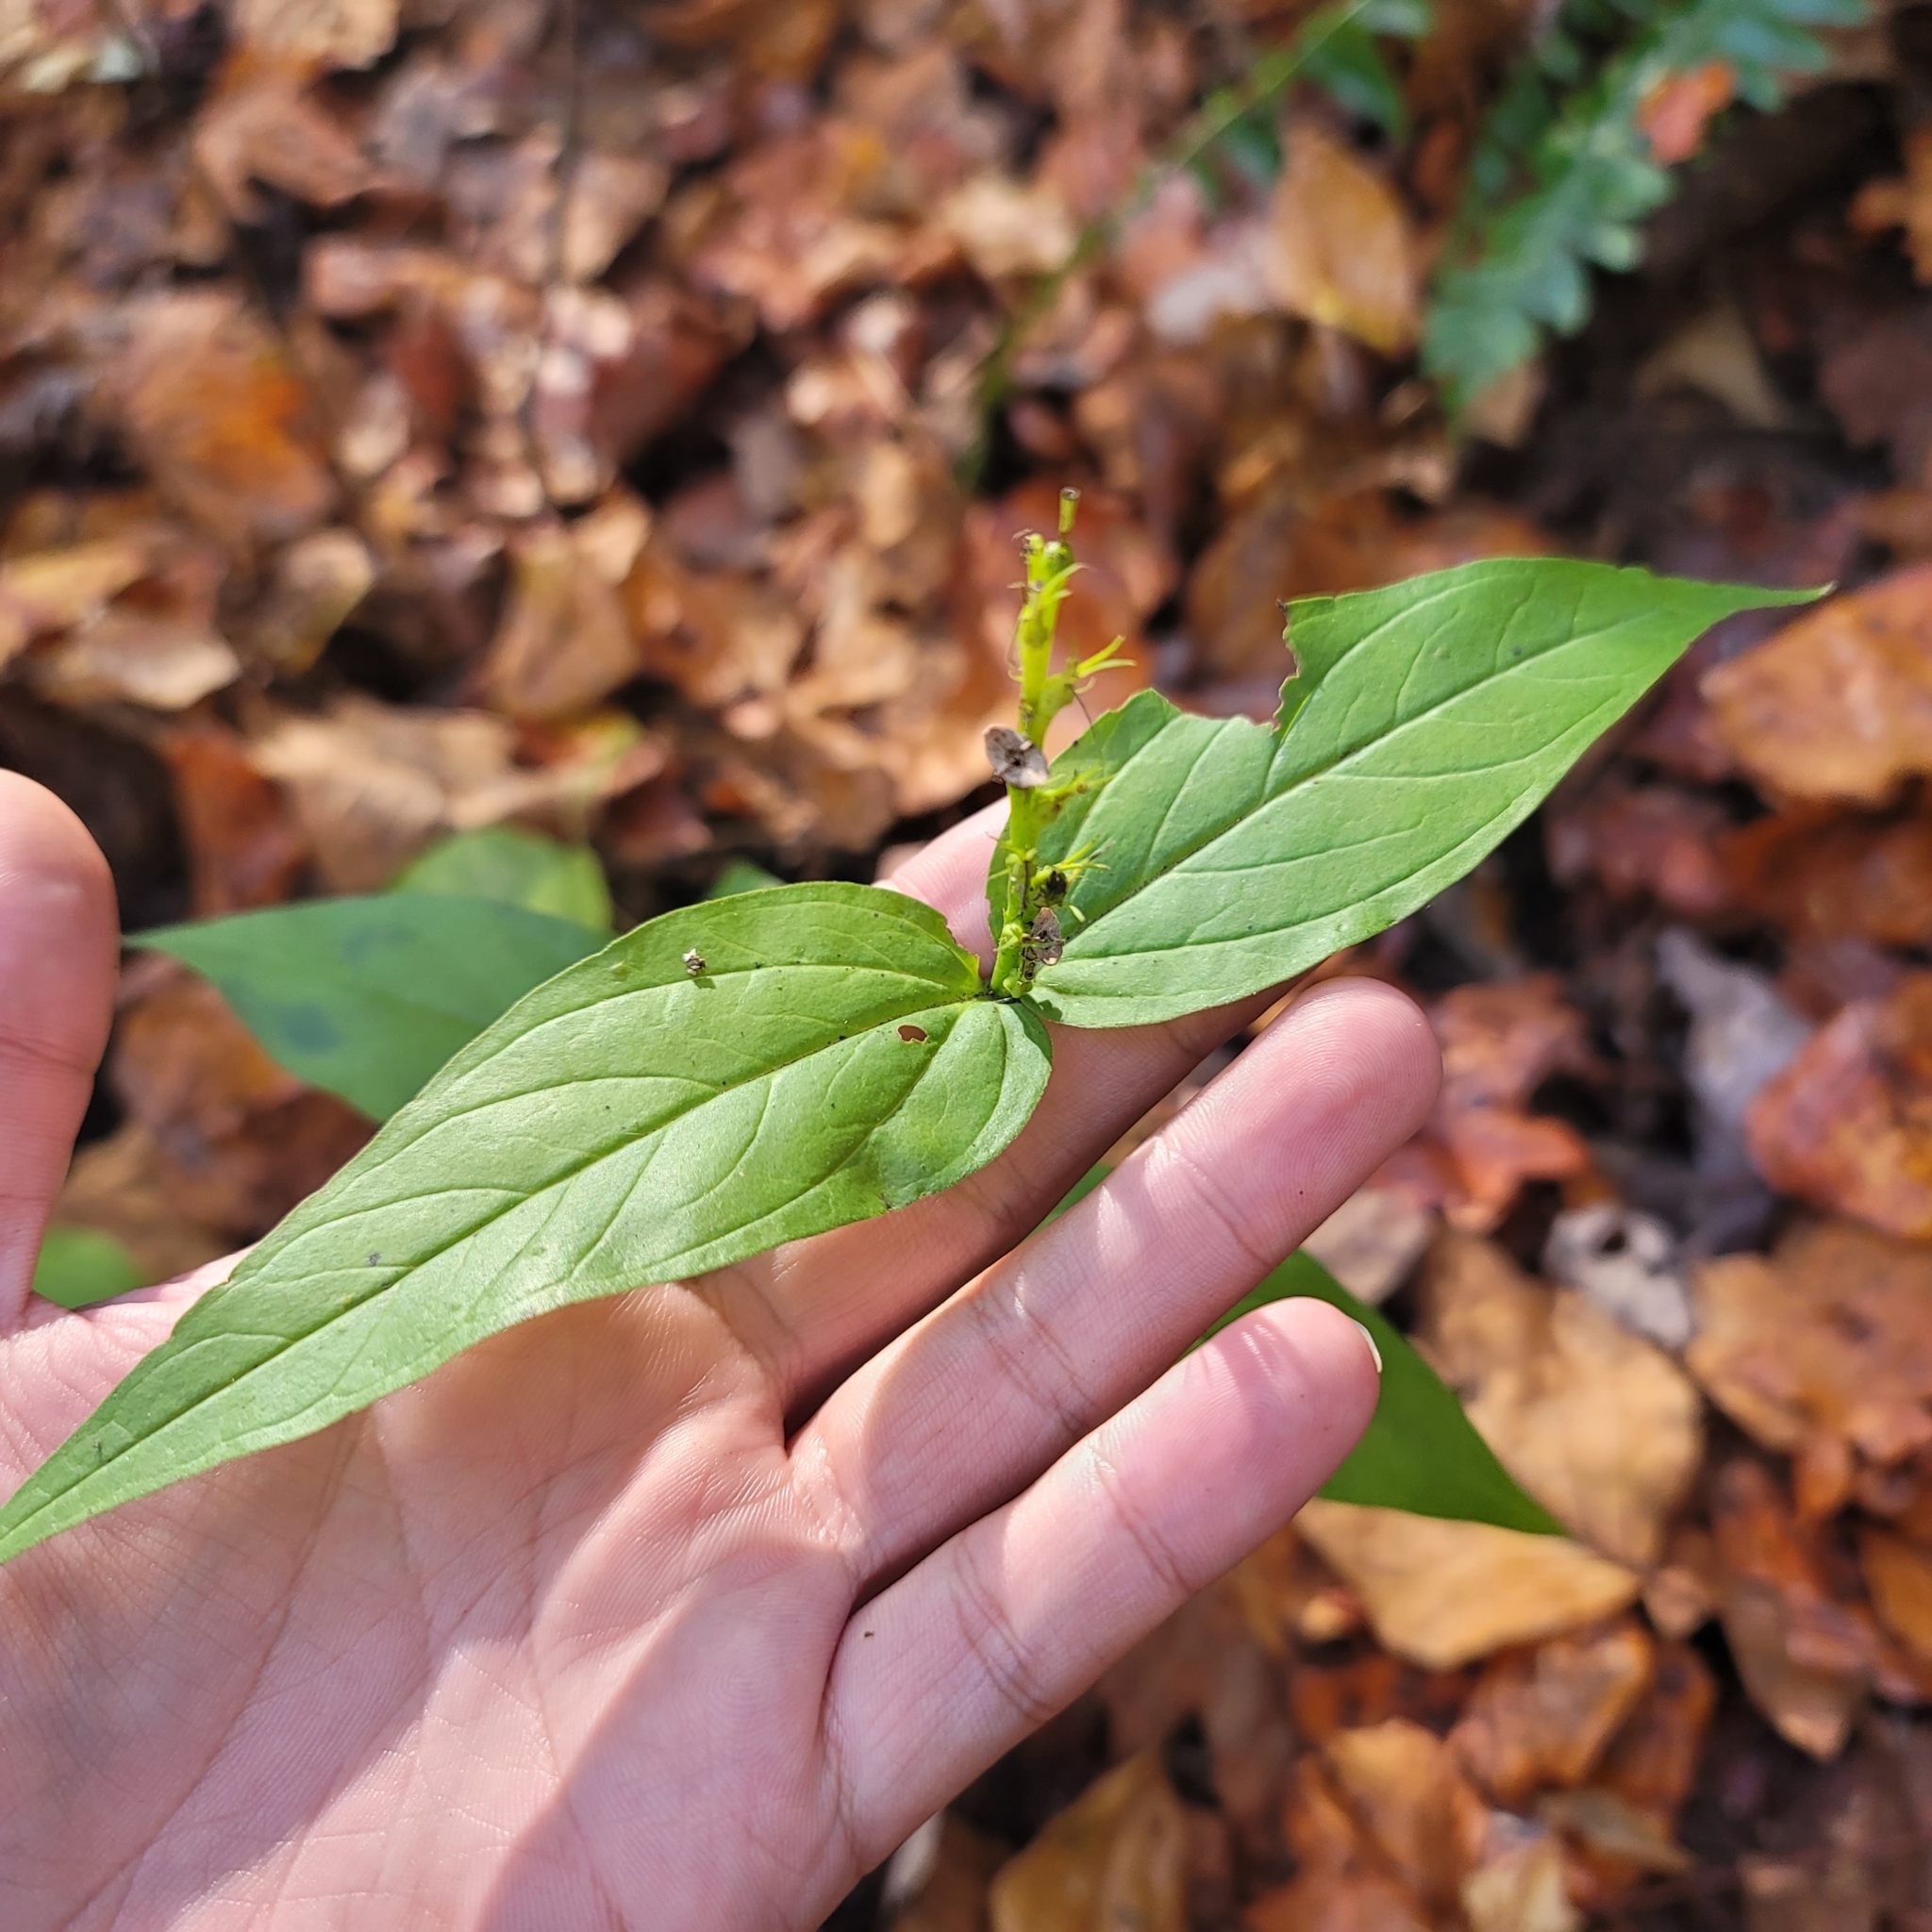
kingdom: Plantae
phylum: Tracheophyta
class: Magnoliopsida
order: Gentianales
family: Loganiaceae
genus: Spigelia
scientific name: Spigelia marilandica
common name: Indian-pink
